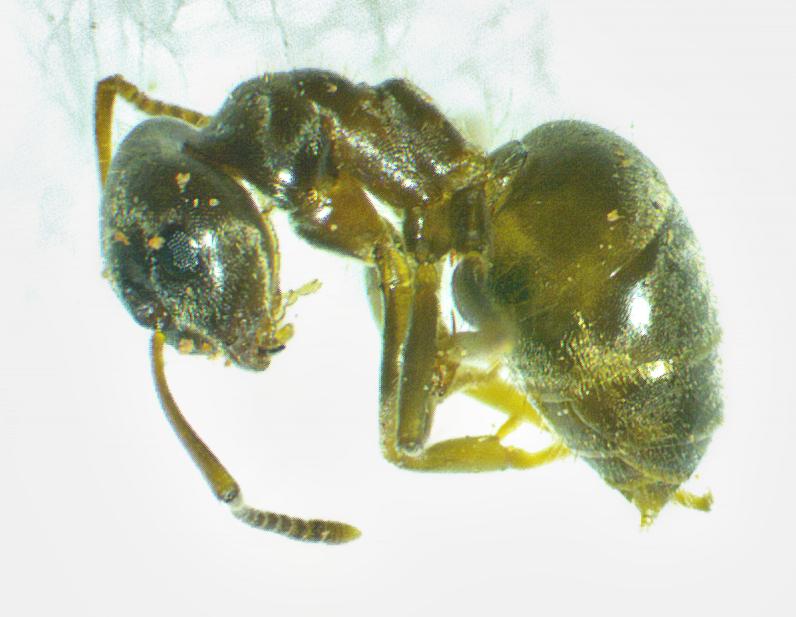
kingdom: Animalia
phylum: Arthropoda
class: Insecta
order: Hymenoptera
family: Formicidae
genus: Lasius
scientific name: Lasius neoniger
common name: Turfgrass ant
